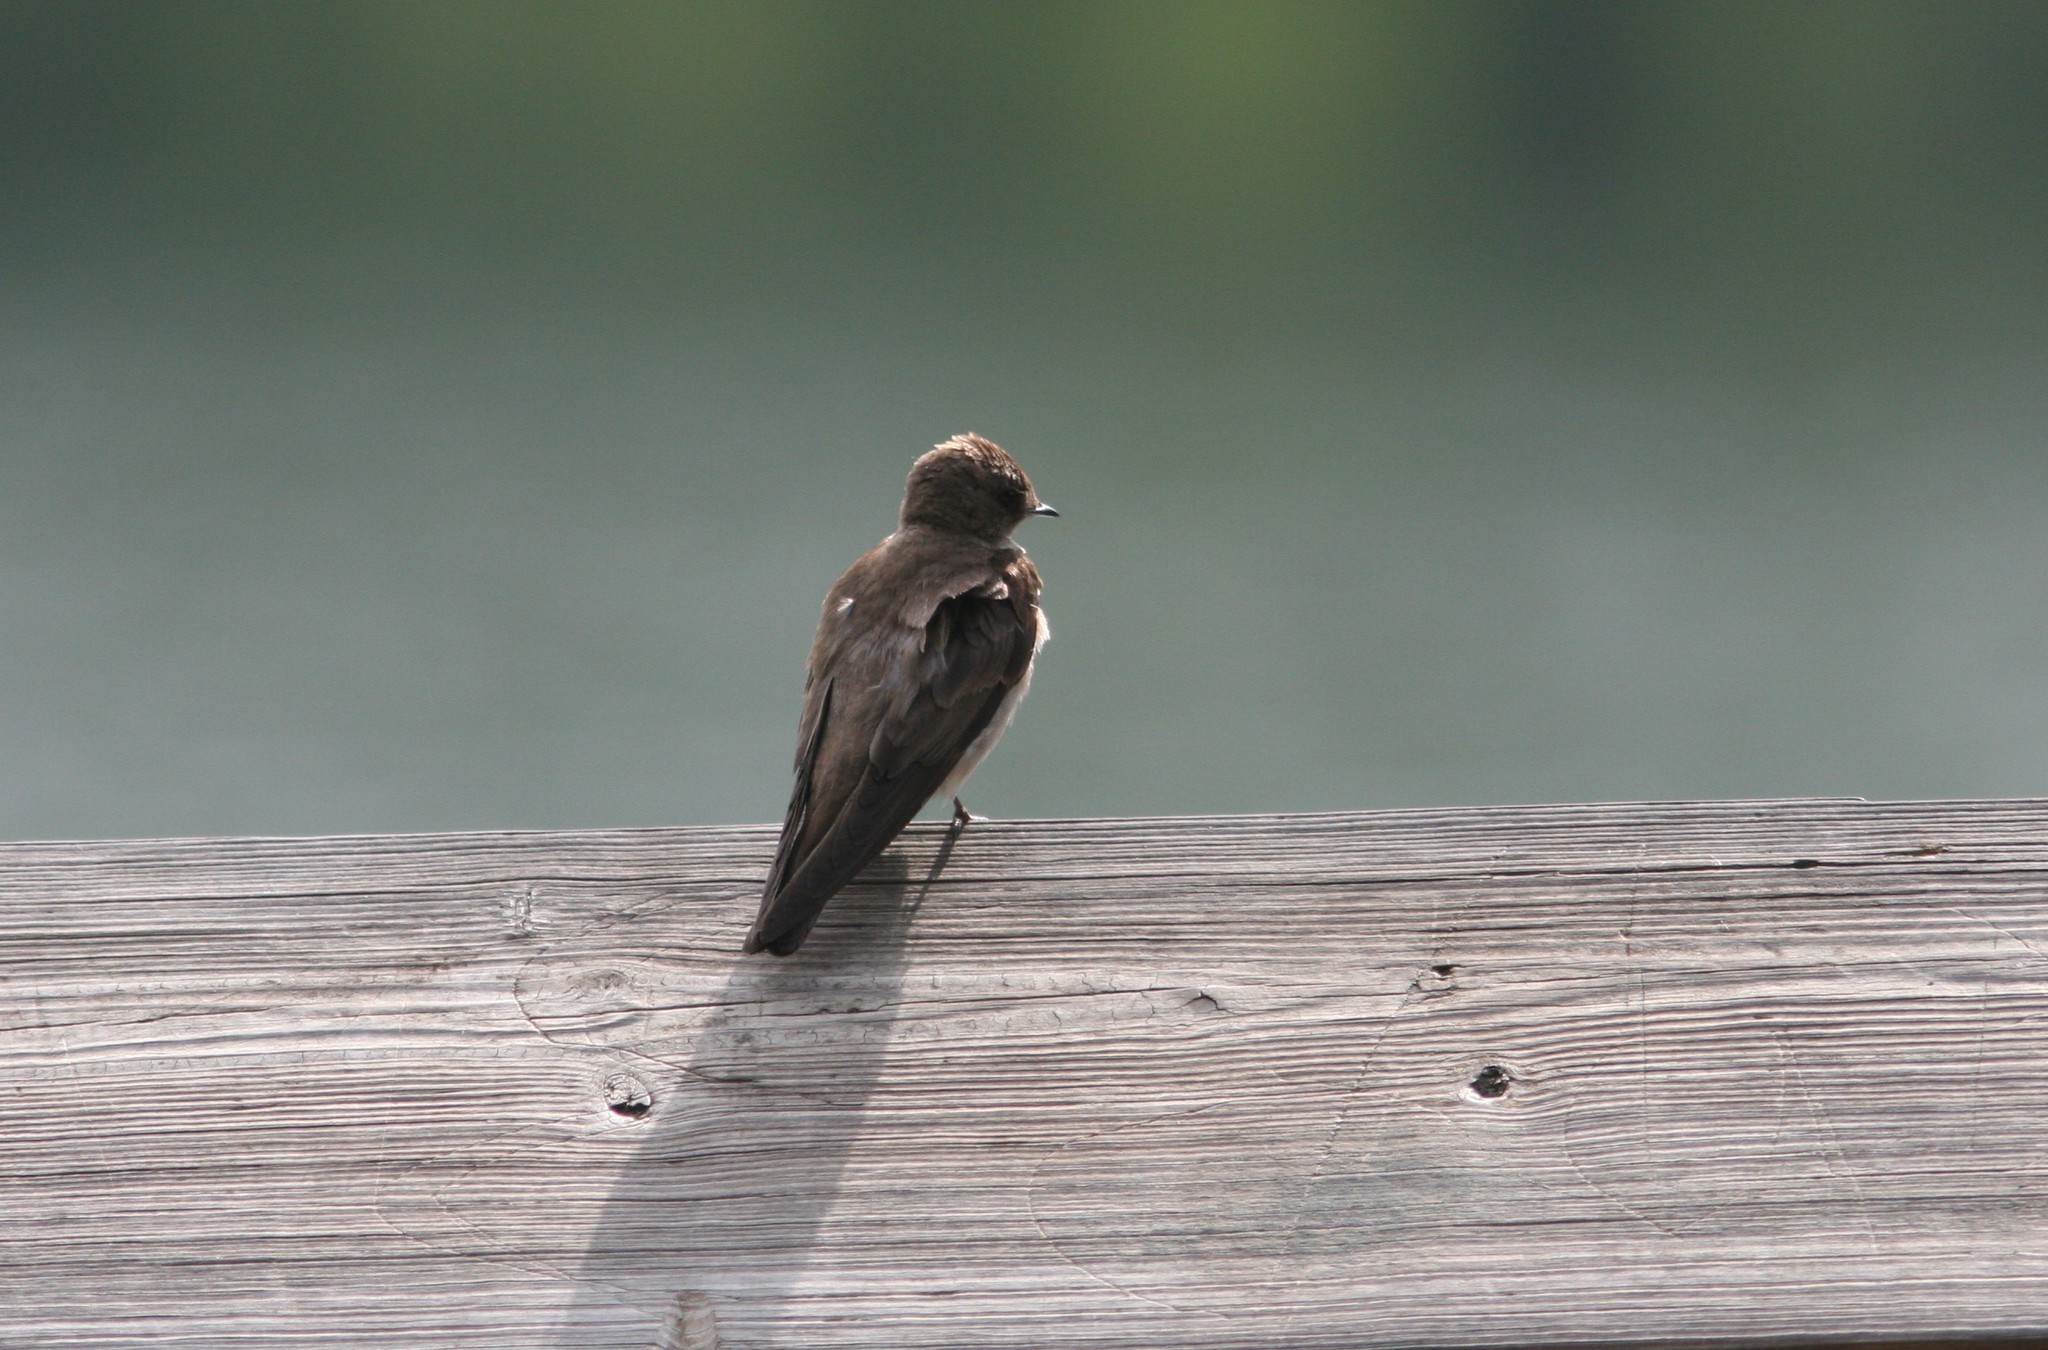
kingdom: Animalia
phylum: Chordata
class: Aves
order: Passeriformes
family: Hirundinidae
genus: Stelgidopteryx
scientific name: Stelgidopteryx serripennis
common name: Northern rough-winged swallow
